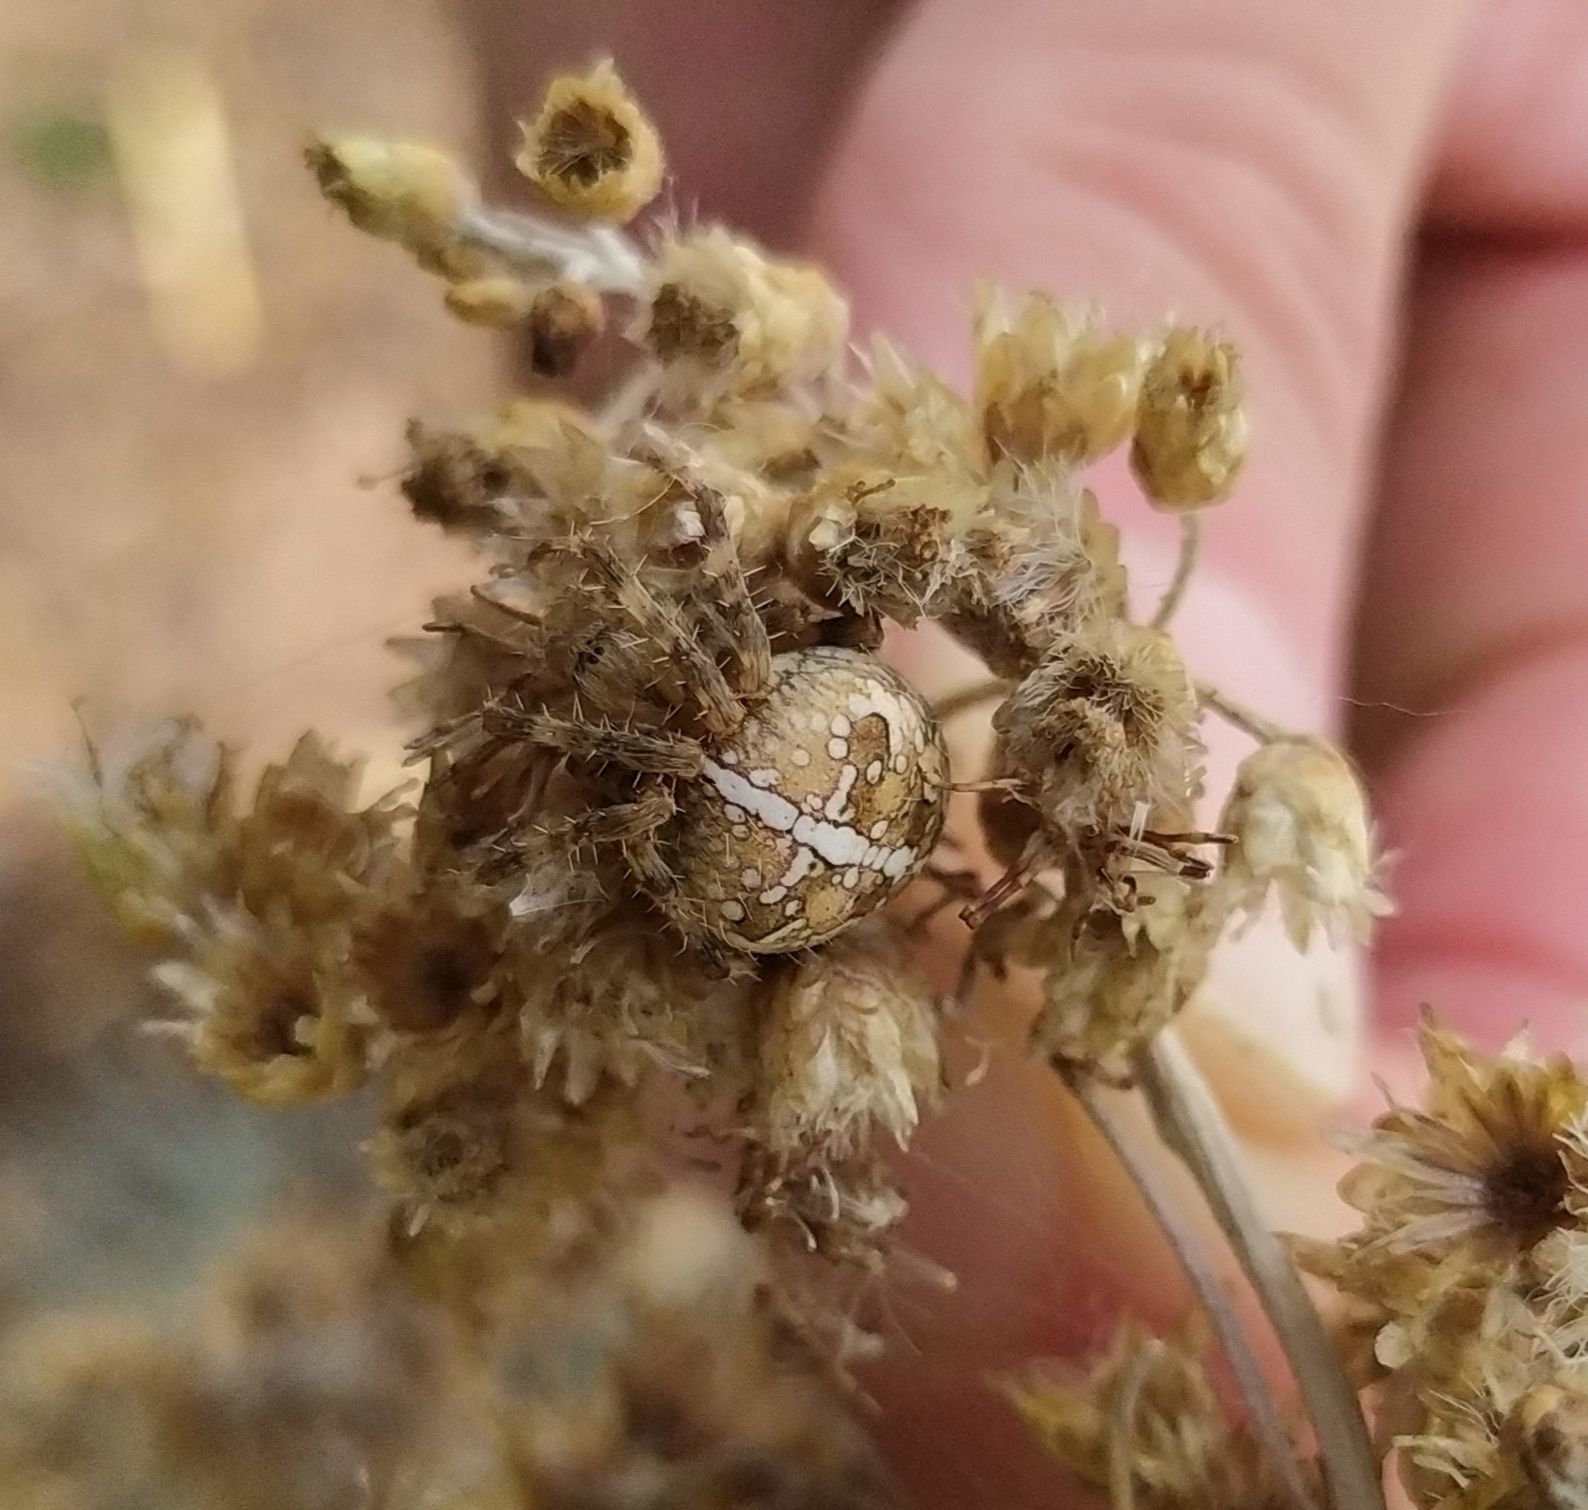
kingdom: Animalia
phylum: Arthropoda
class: Arachnida
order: Araneae
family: Araneidae
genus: Araneus
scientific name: Araneus diadematus
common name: Cross orbweaver
